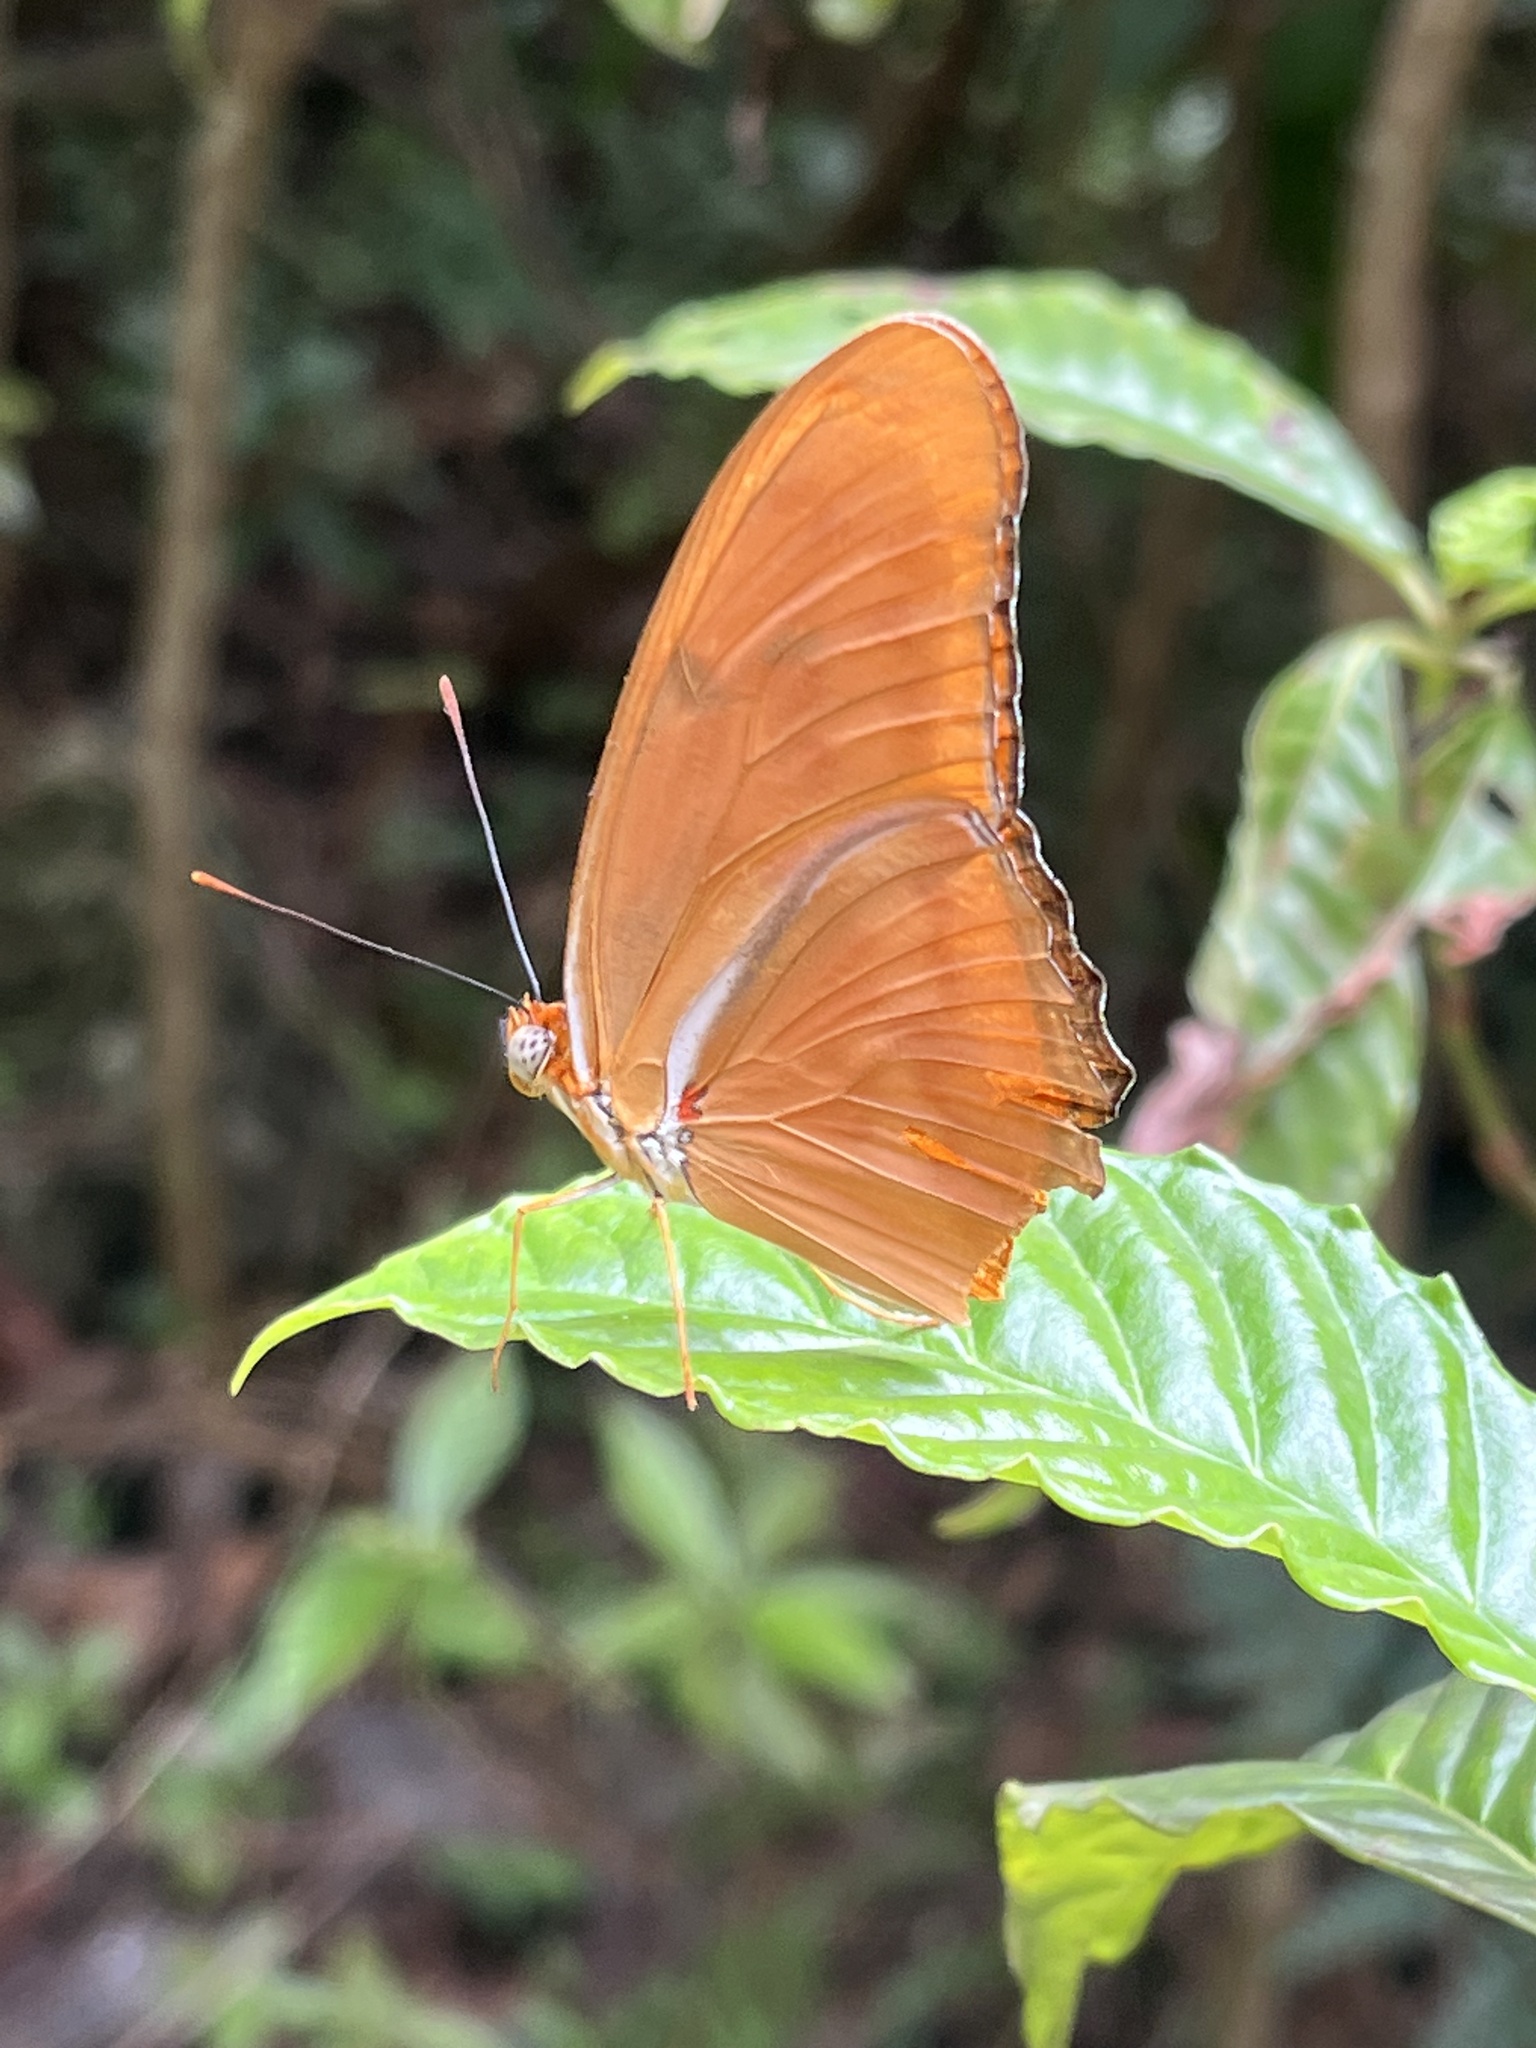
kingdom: Animalia
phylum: Arthropoda
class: Insecta
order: Lepidoptera
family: Nymphalidae
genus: Dryas
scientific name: Dryas iulia
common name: Flambeau
